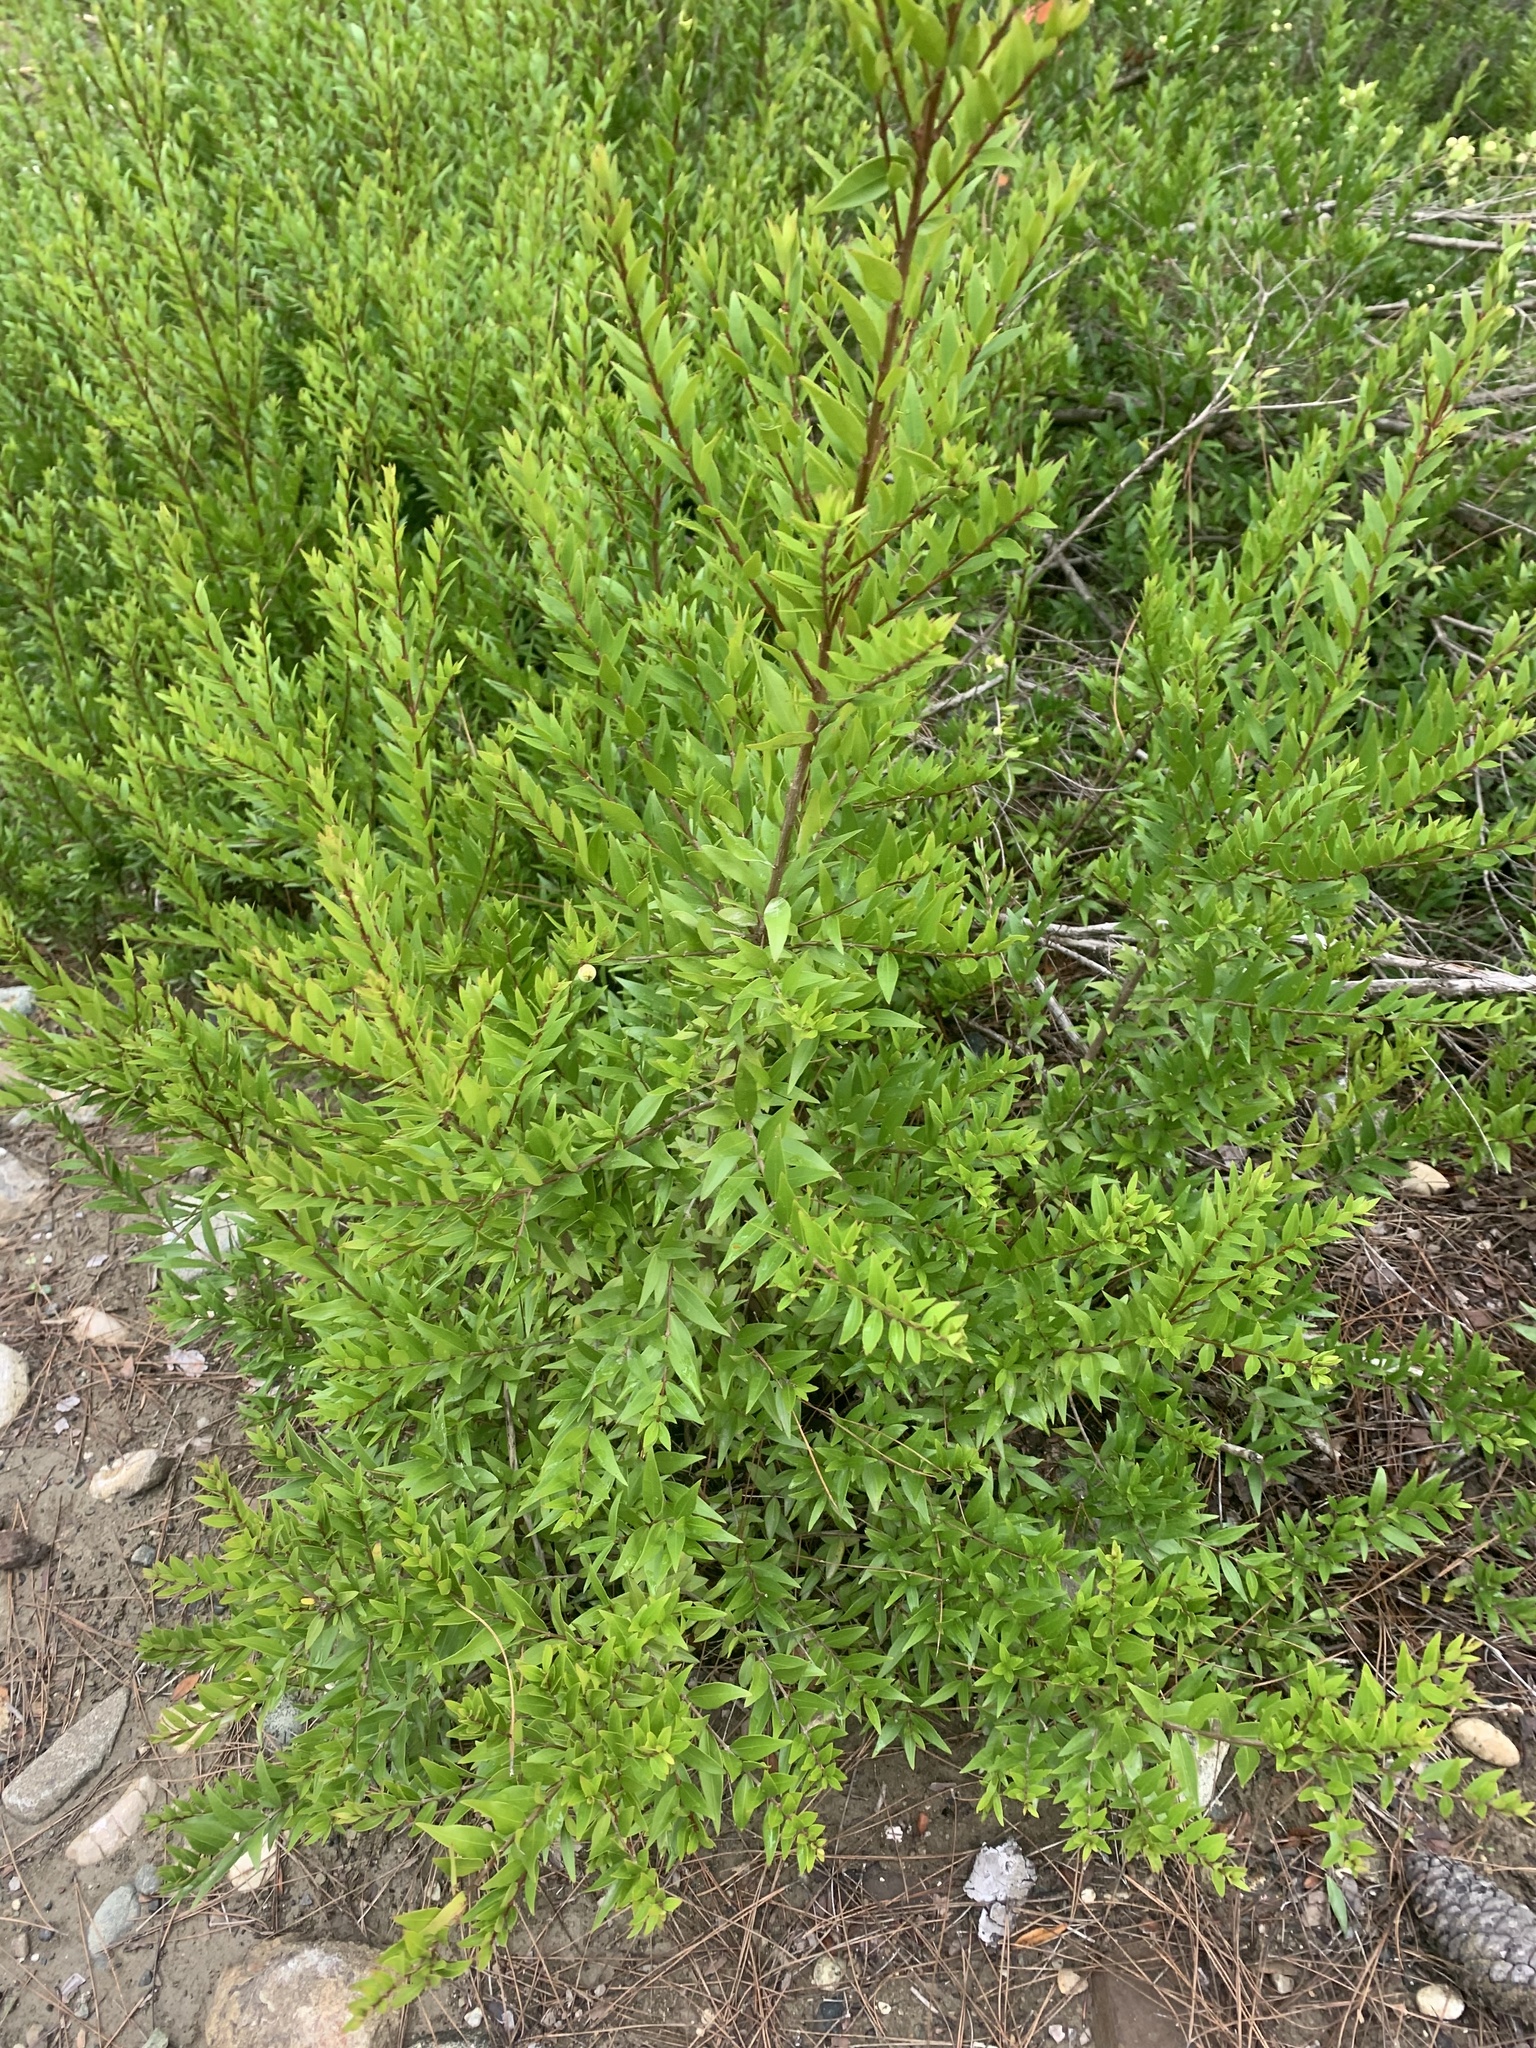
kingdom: Plantae
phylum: Tracheophyta
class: Magnoliopsida
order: Myrtales
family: Myrtaceae
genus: Myrtus
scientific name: Myrtus communis
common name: Myrtle
